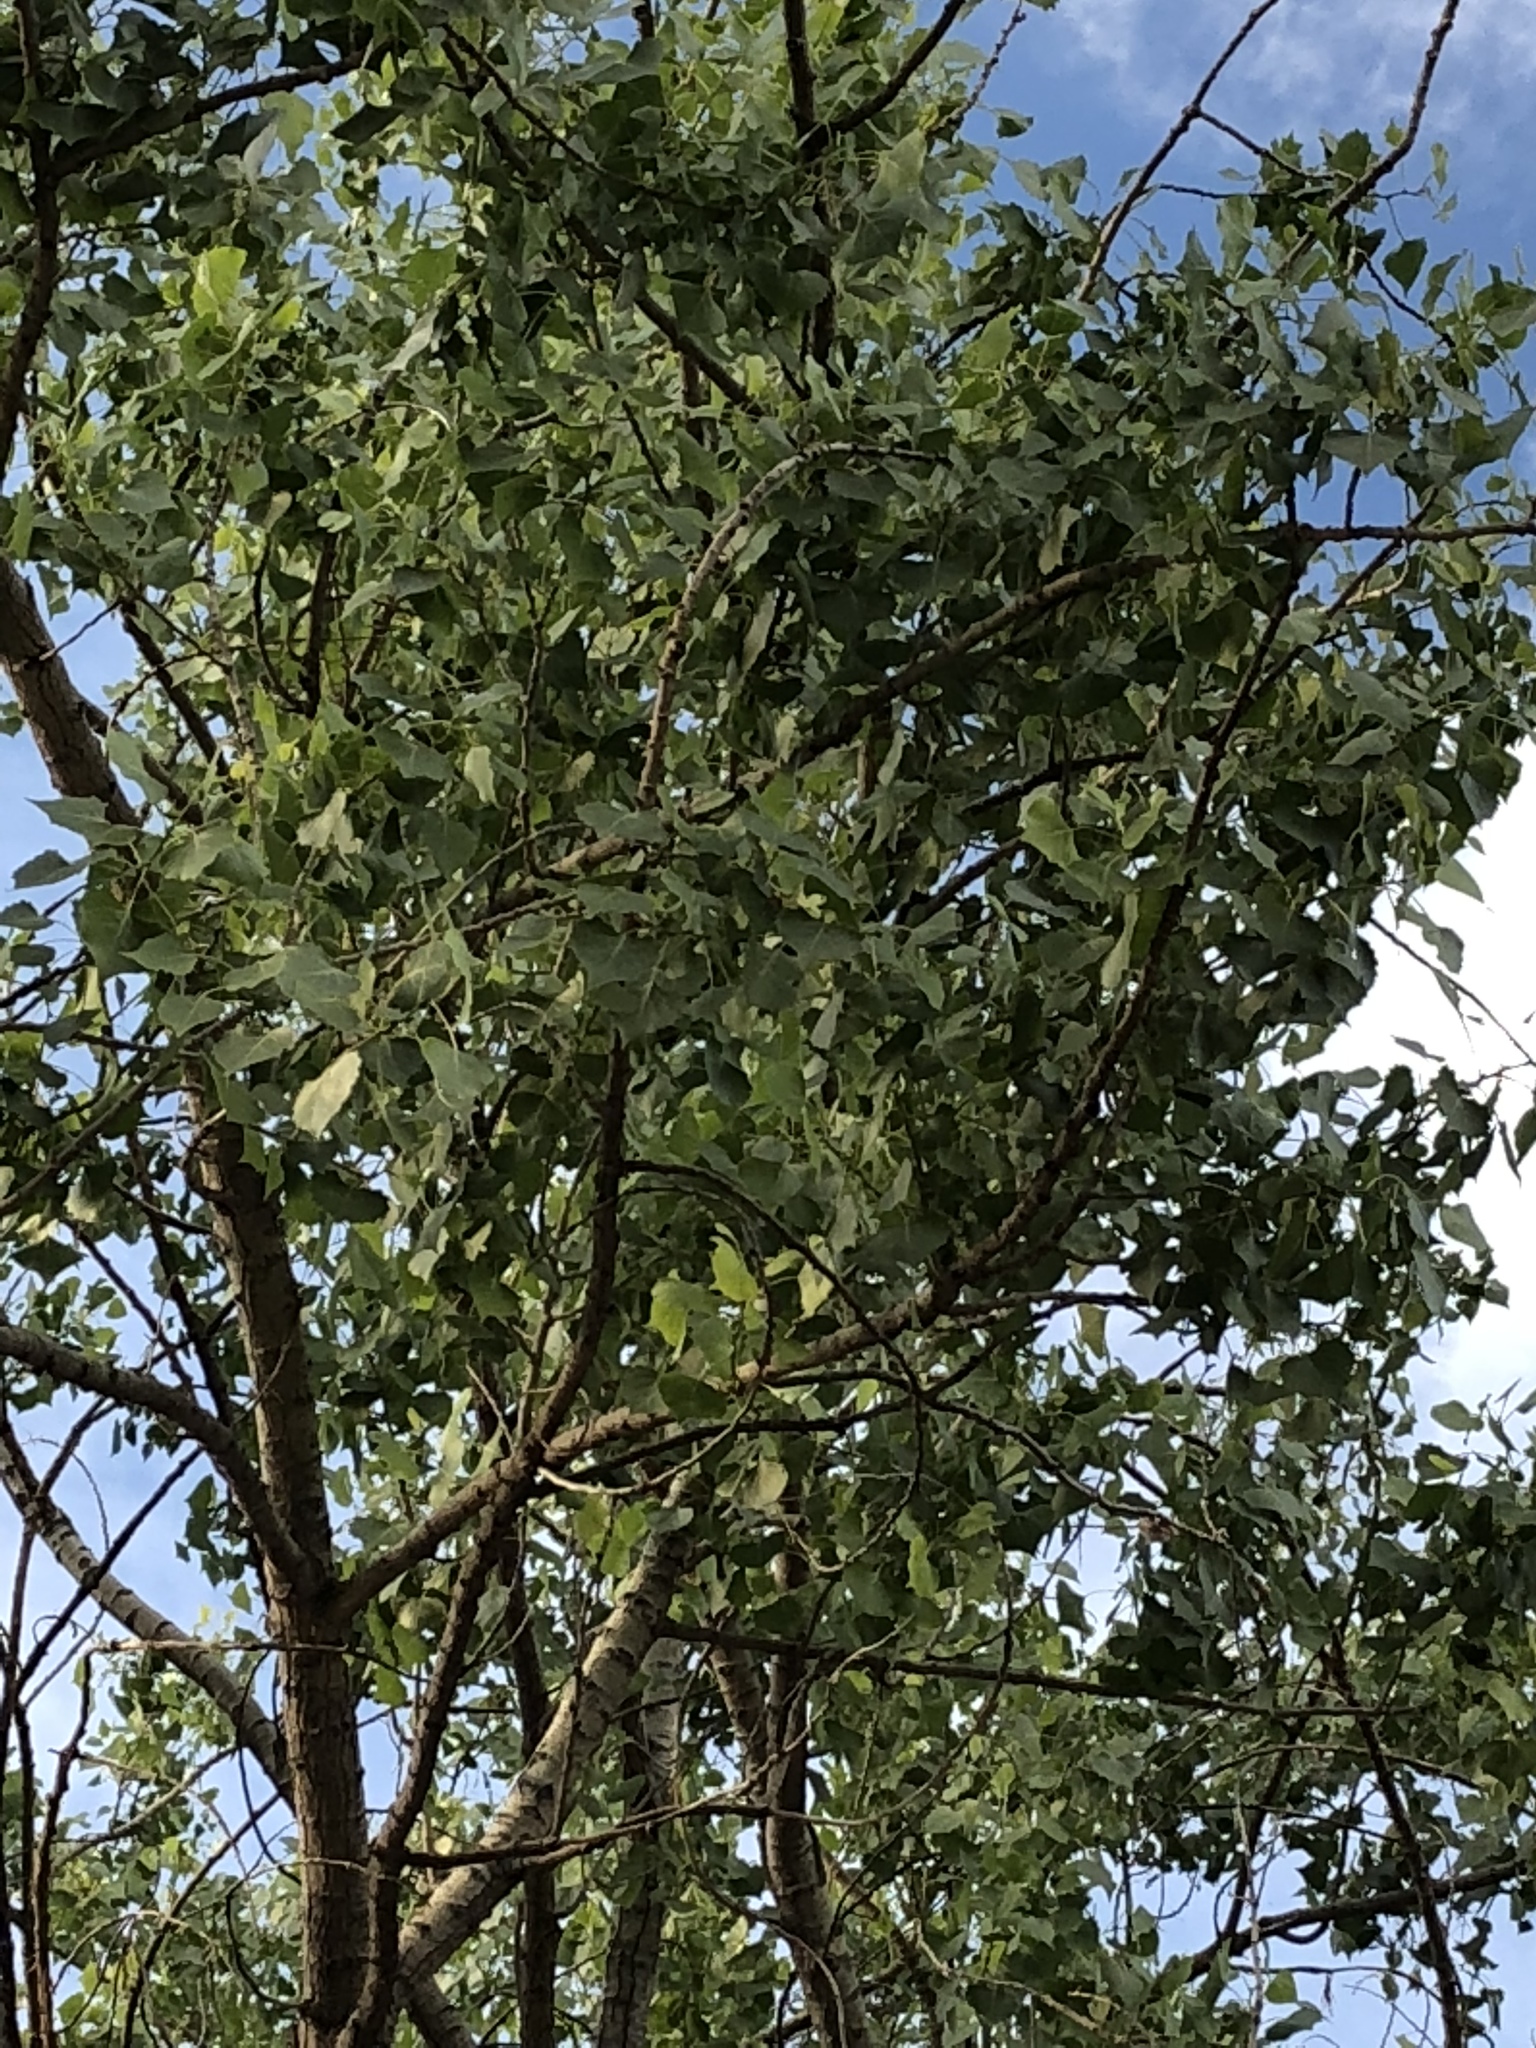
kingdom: Plantae
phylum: Tracheophyta
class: Magnoliopsida
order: Malpighiales
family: Salicaceae
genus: Populus
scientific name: Populus fremontii
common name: Fremont's cottonwood
